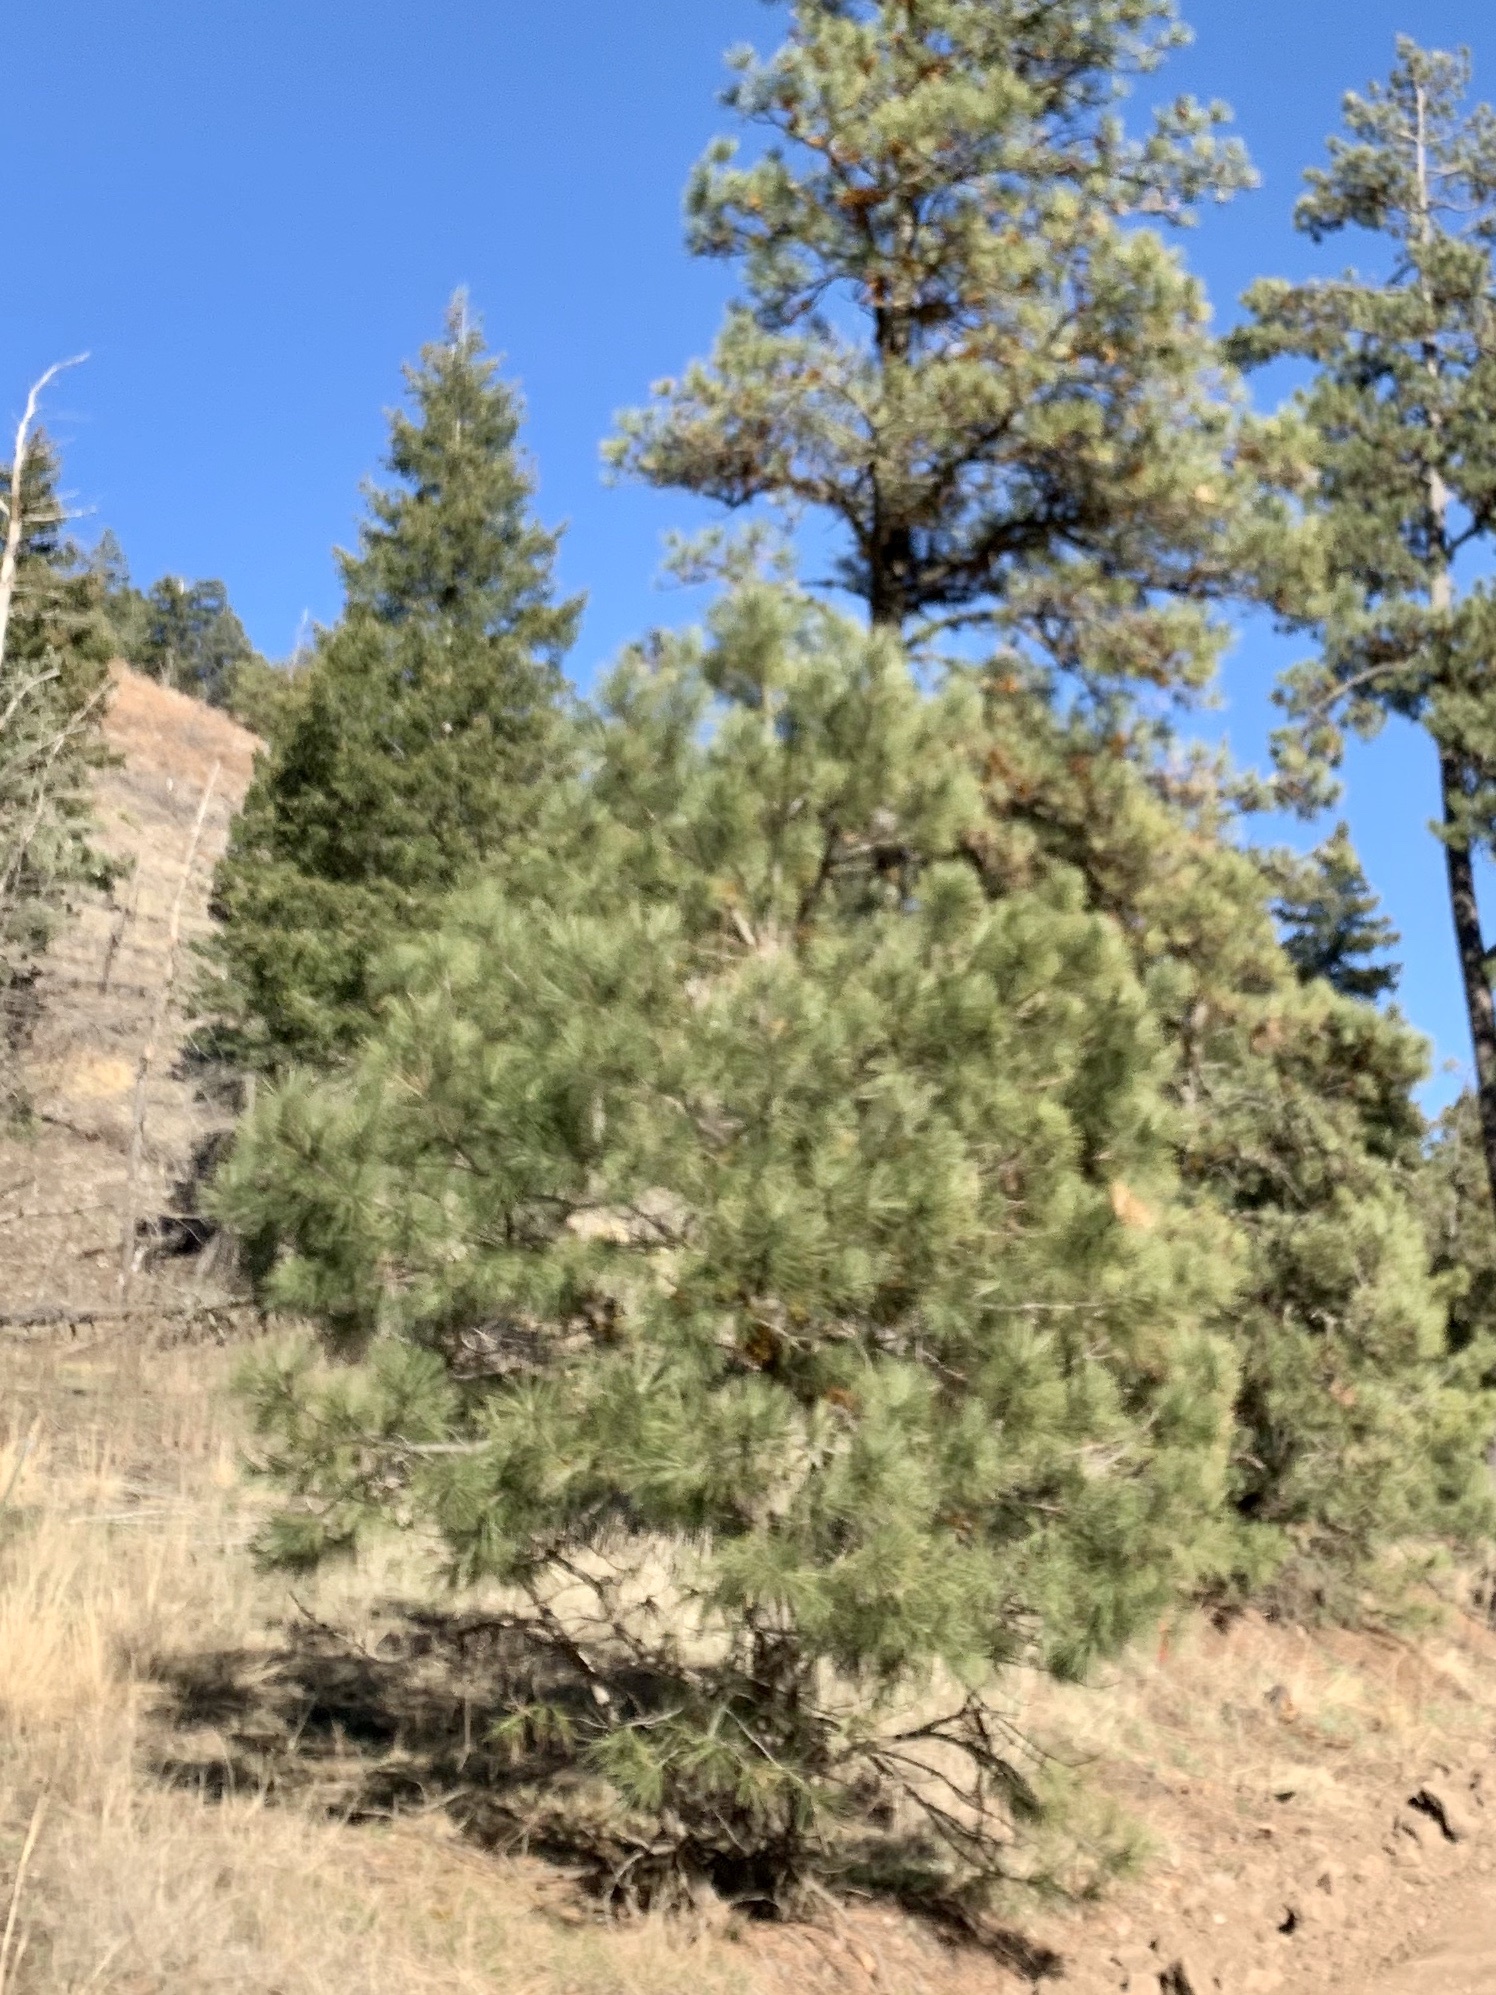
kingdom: Plantae
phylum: Tracheophyta
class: Pinopsida
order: Pinales
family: Pinaceae
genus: Pinus
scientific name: Pinus ponderosa
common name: Western yellow-pine
